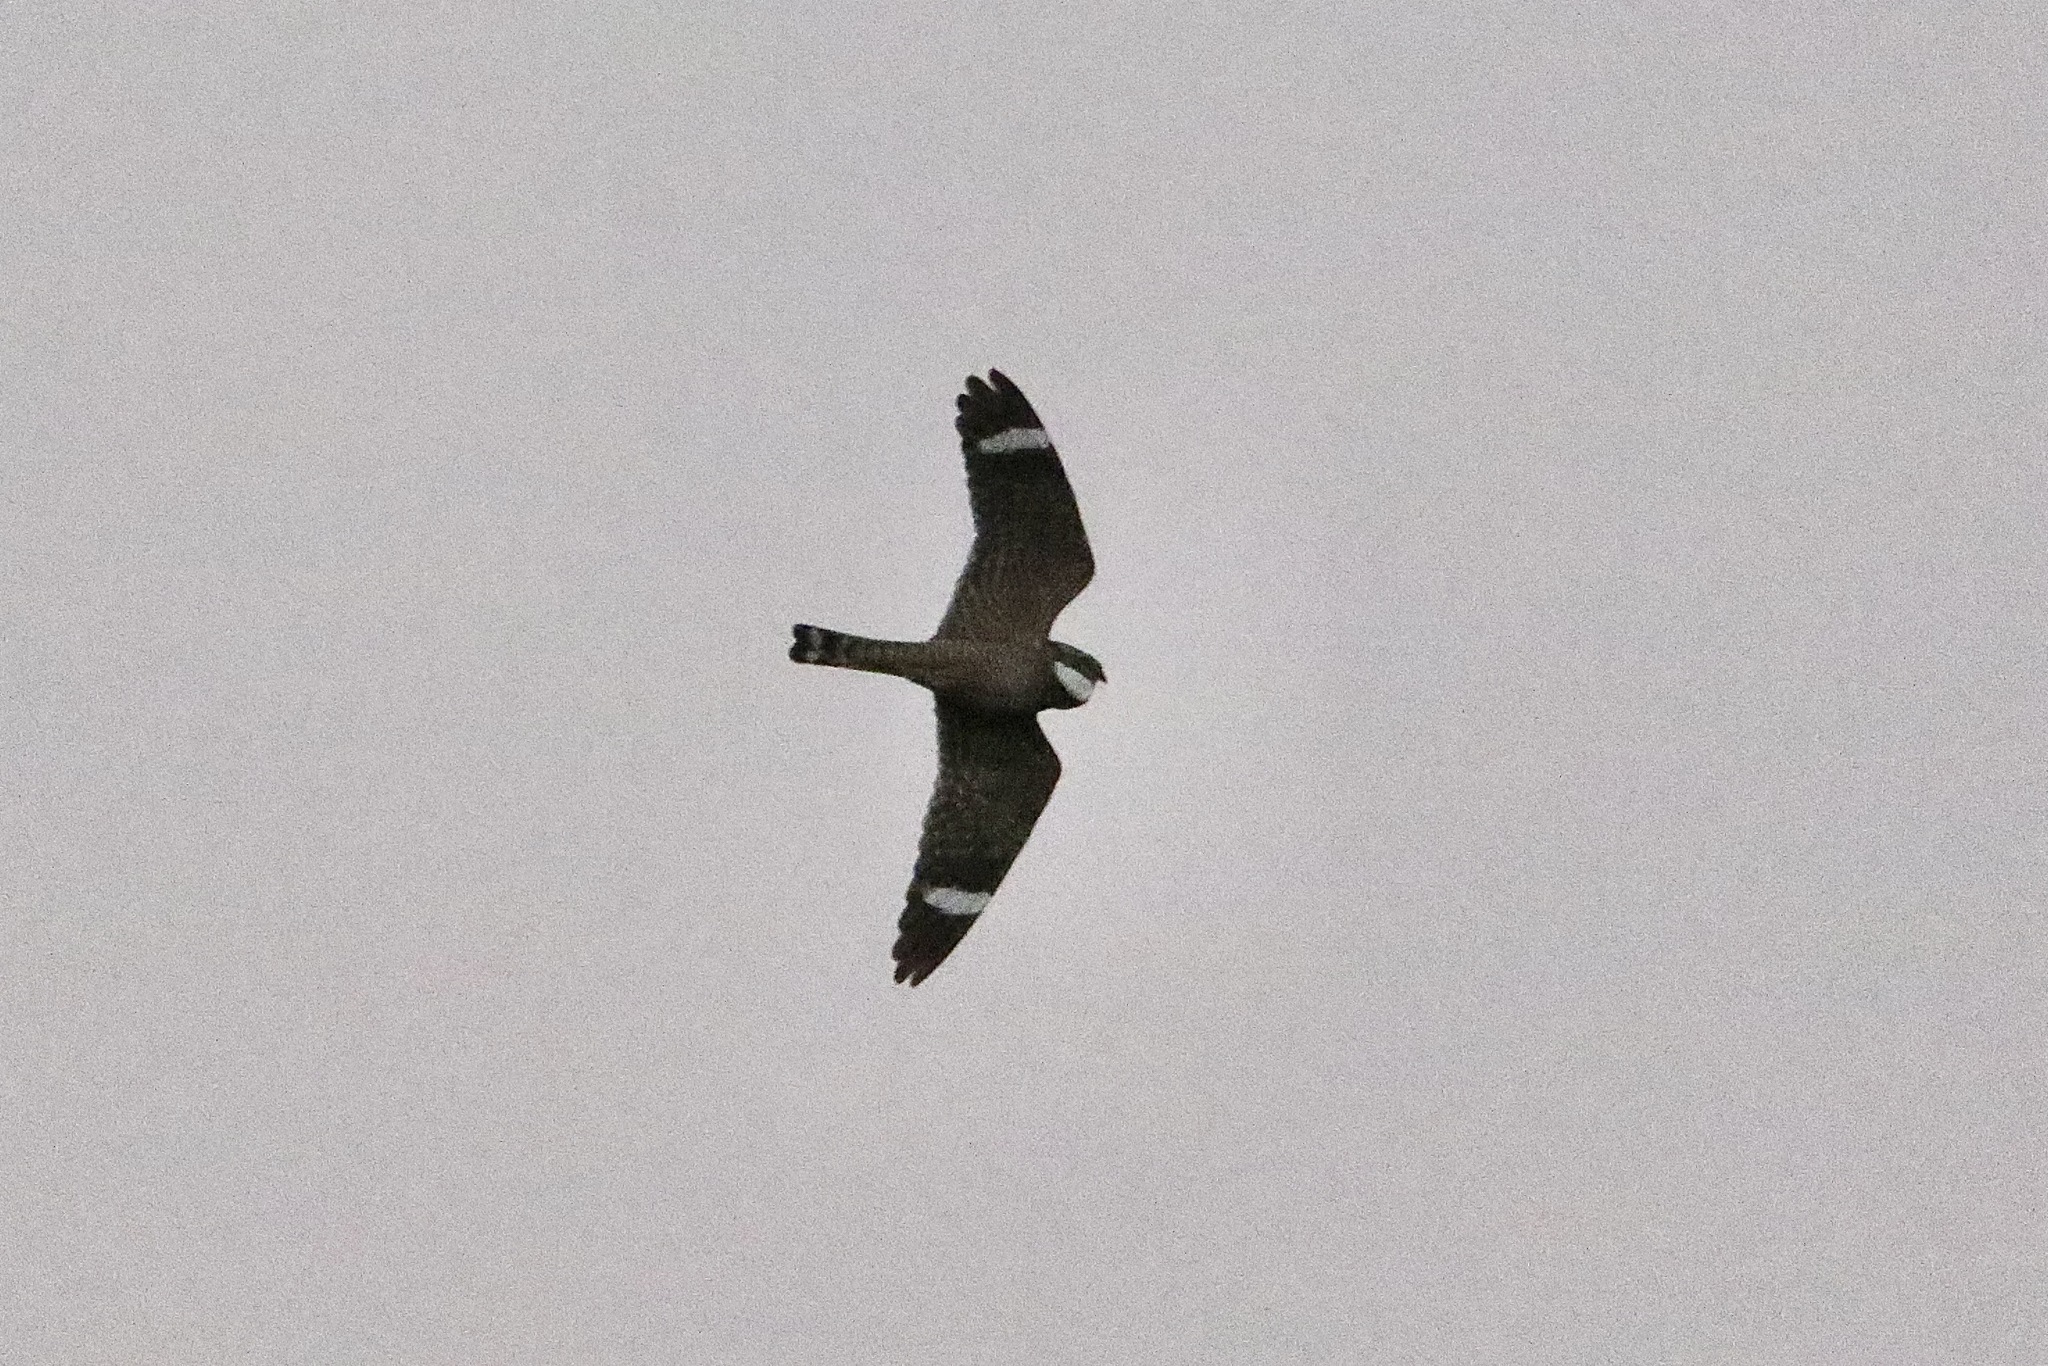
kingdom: Animalia
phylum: Chordata
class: Aves
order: Caprimulgiformes
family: Caprimulgidae
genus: Chordeiles
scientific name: Chordeiles acutipennis
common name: Lesser nighthawk
